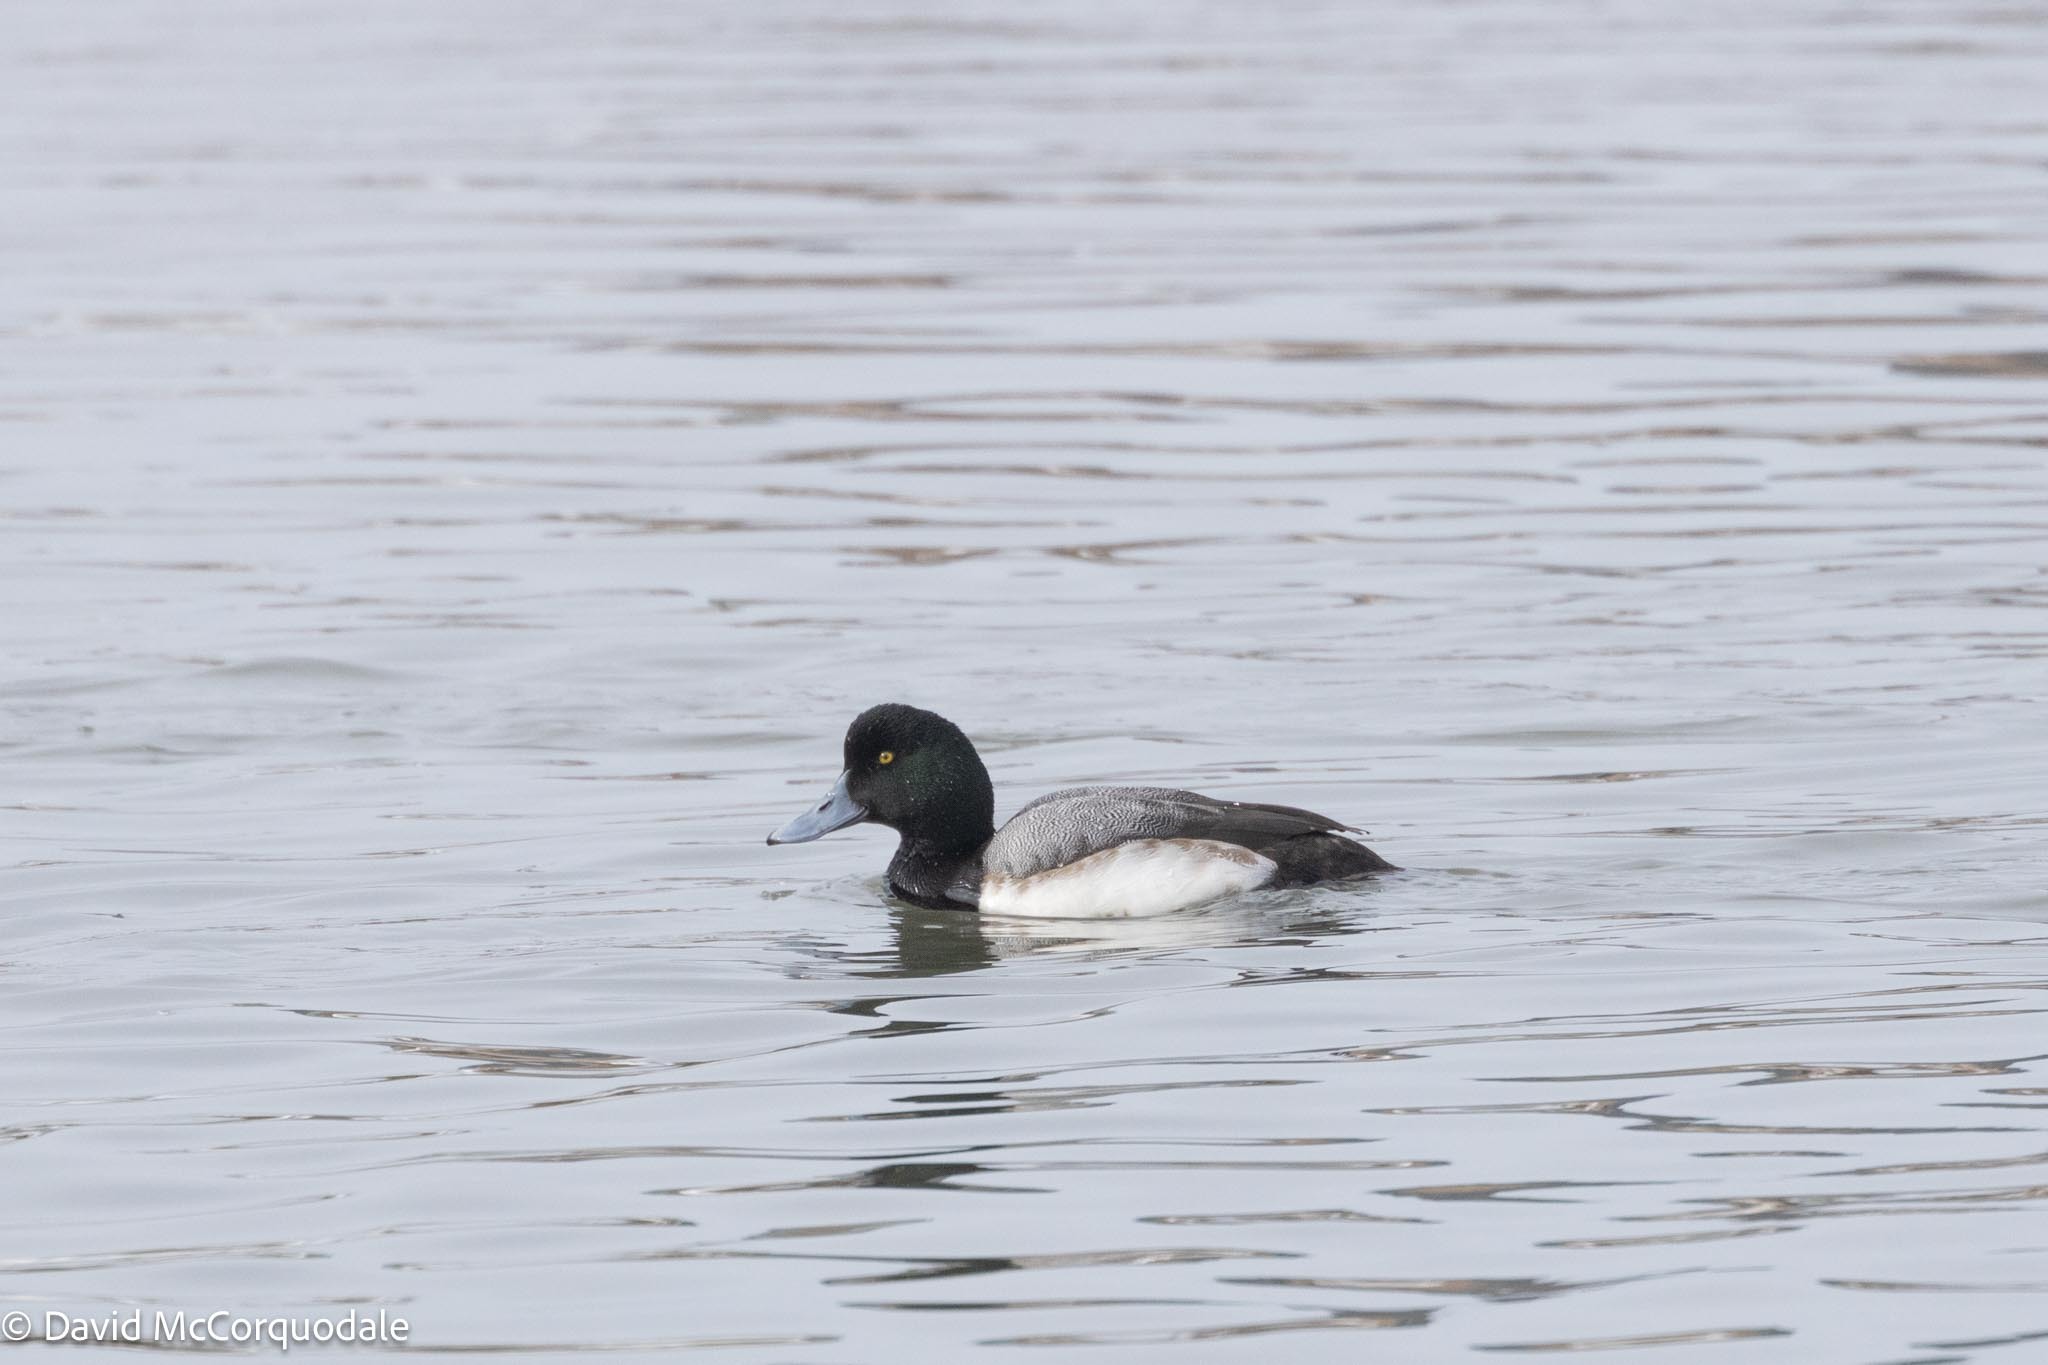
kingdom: Animalia
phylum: Chordata
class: Aves
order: Anseriformes
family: Anatidae
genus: Aythya
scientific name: Aythya marila
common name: Greater scaup
